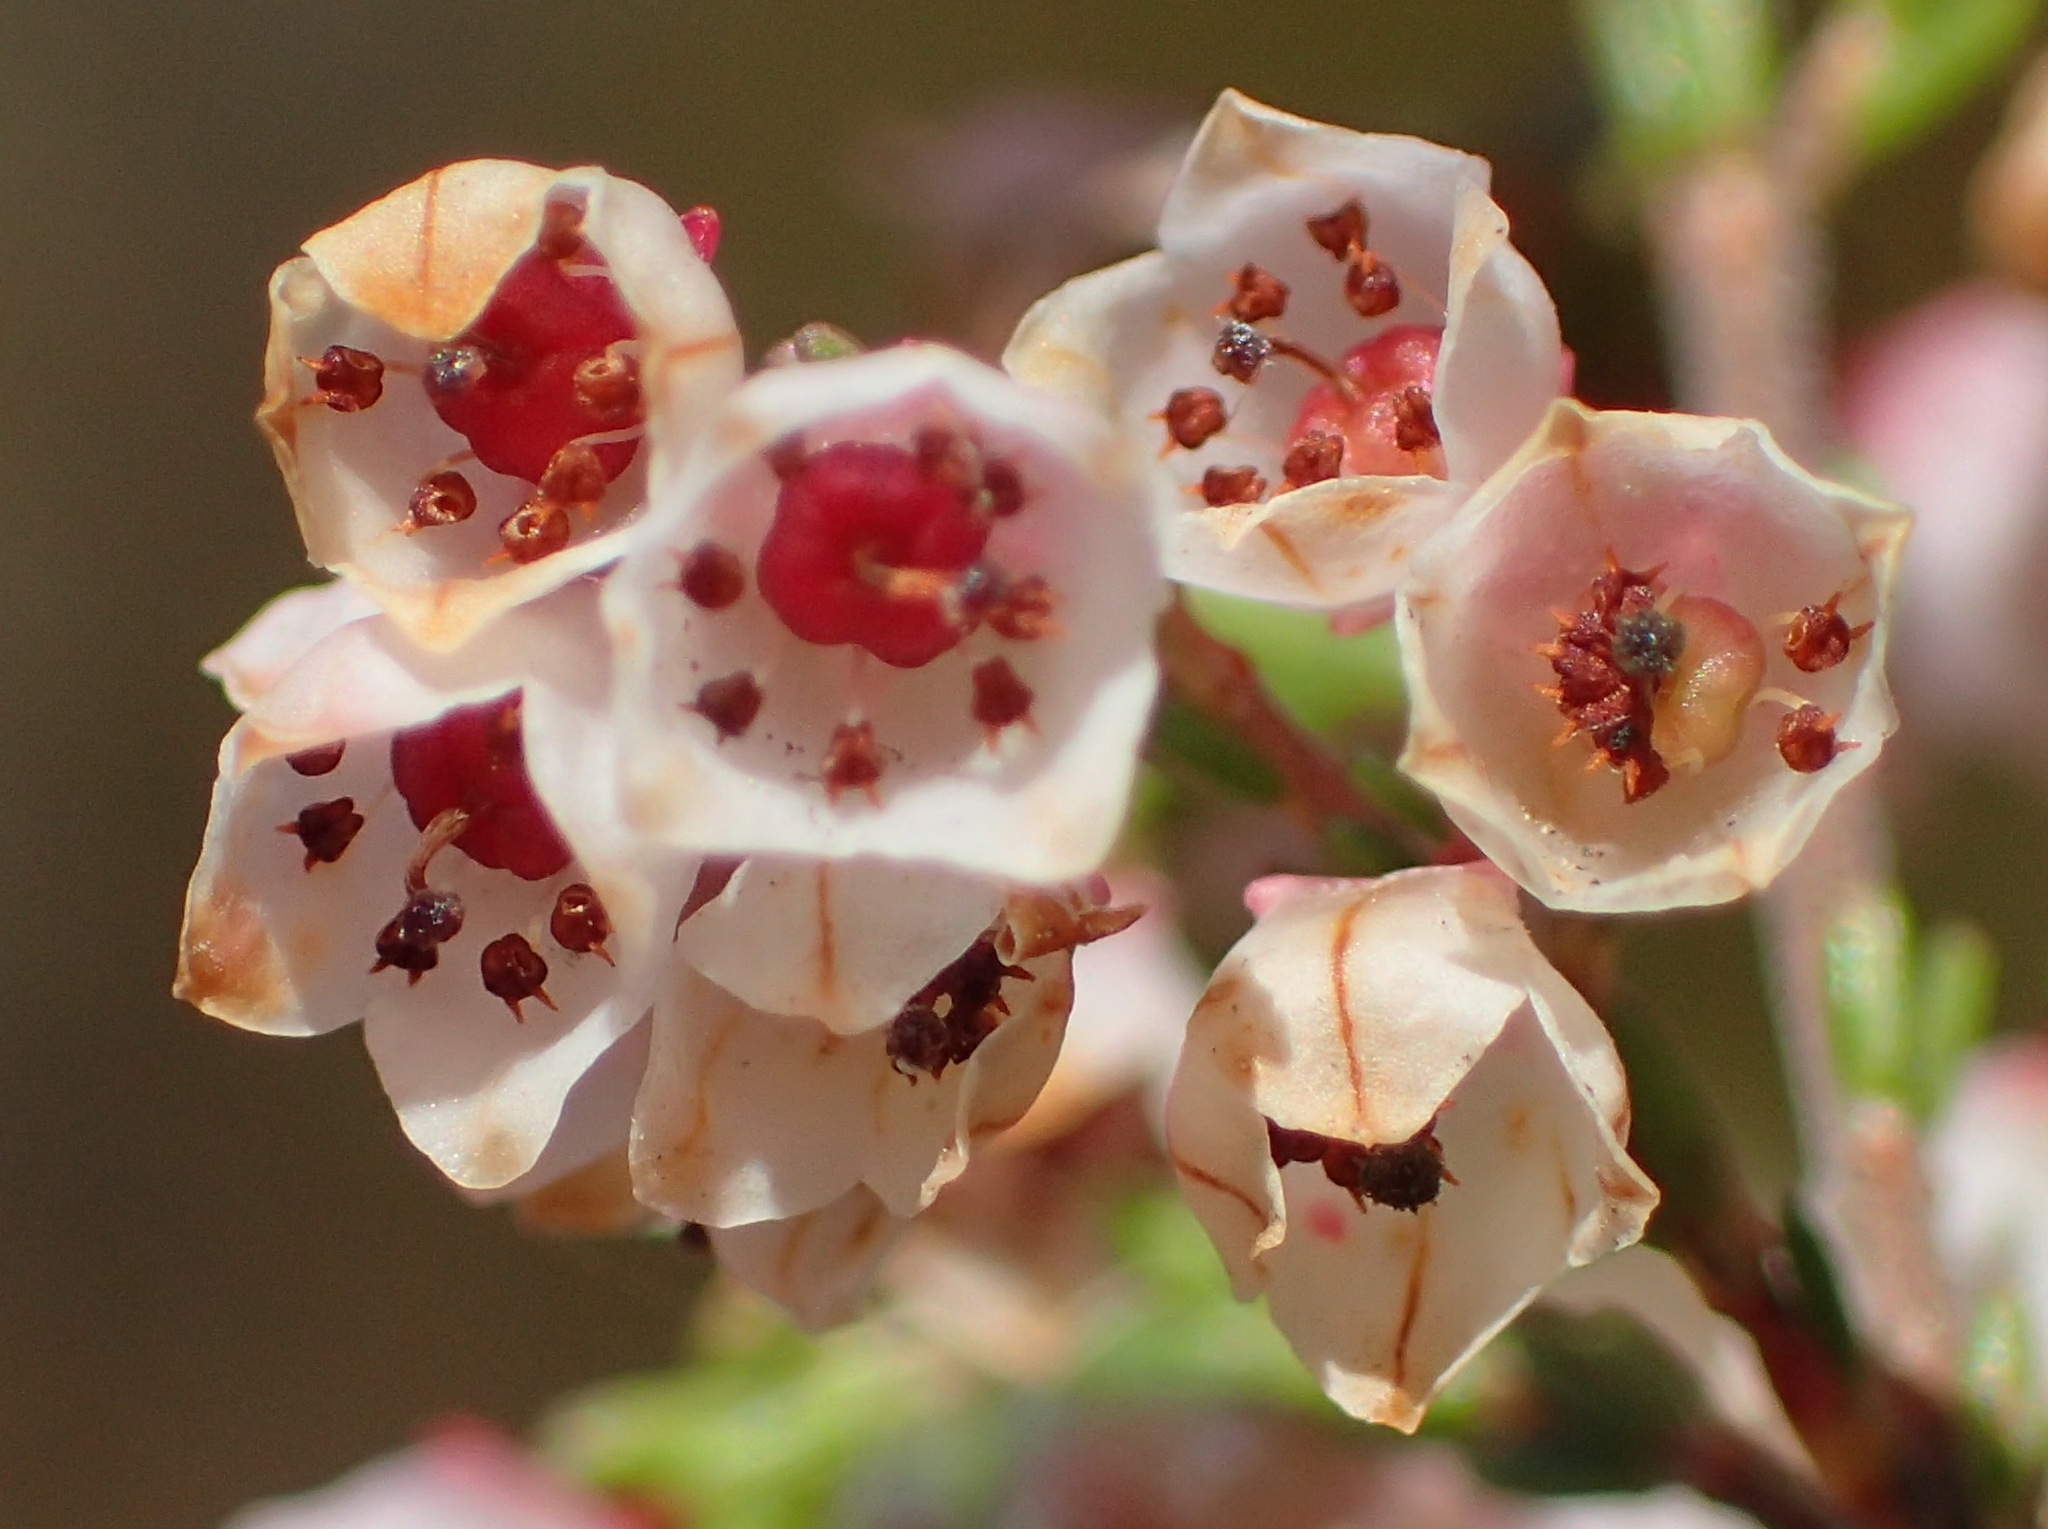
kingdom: Plantae
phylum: Tracheophyta
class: Magnoliopsida
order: Ericales
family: Ericaceae
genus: Erica
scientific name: Erica quadrangularis
